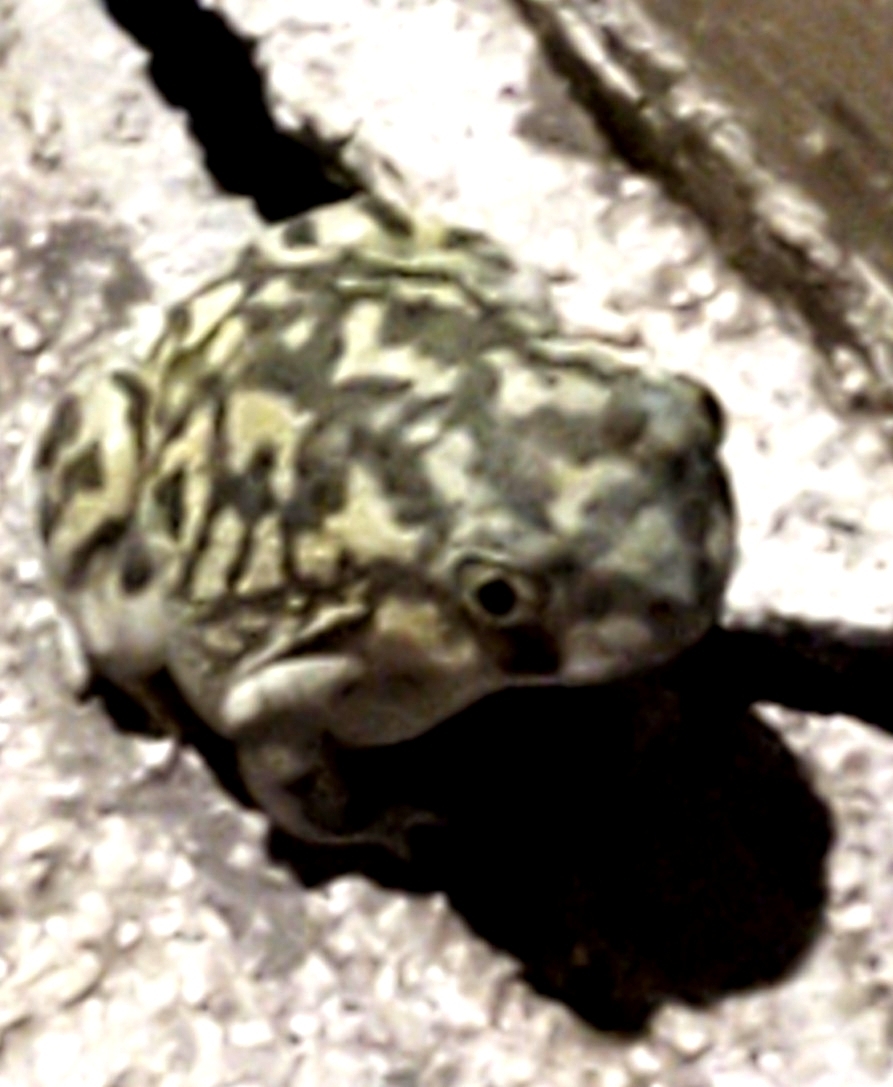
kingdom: Animalia
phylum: Chordata
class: Amphibia
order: Anura
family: Scaphiopodidae
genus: Scaphiopus
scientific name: Scaphiopus couchii
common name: Couch's spadefoot toad
